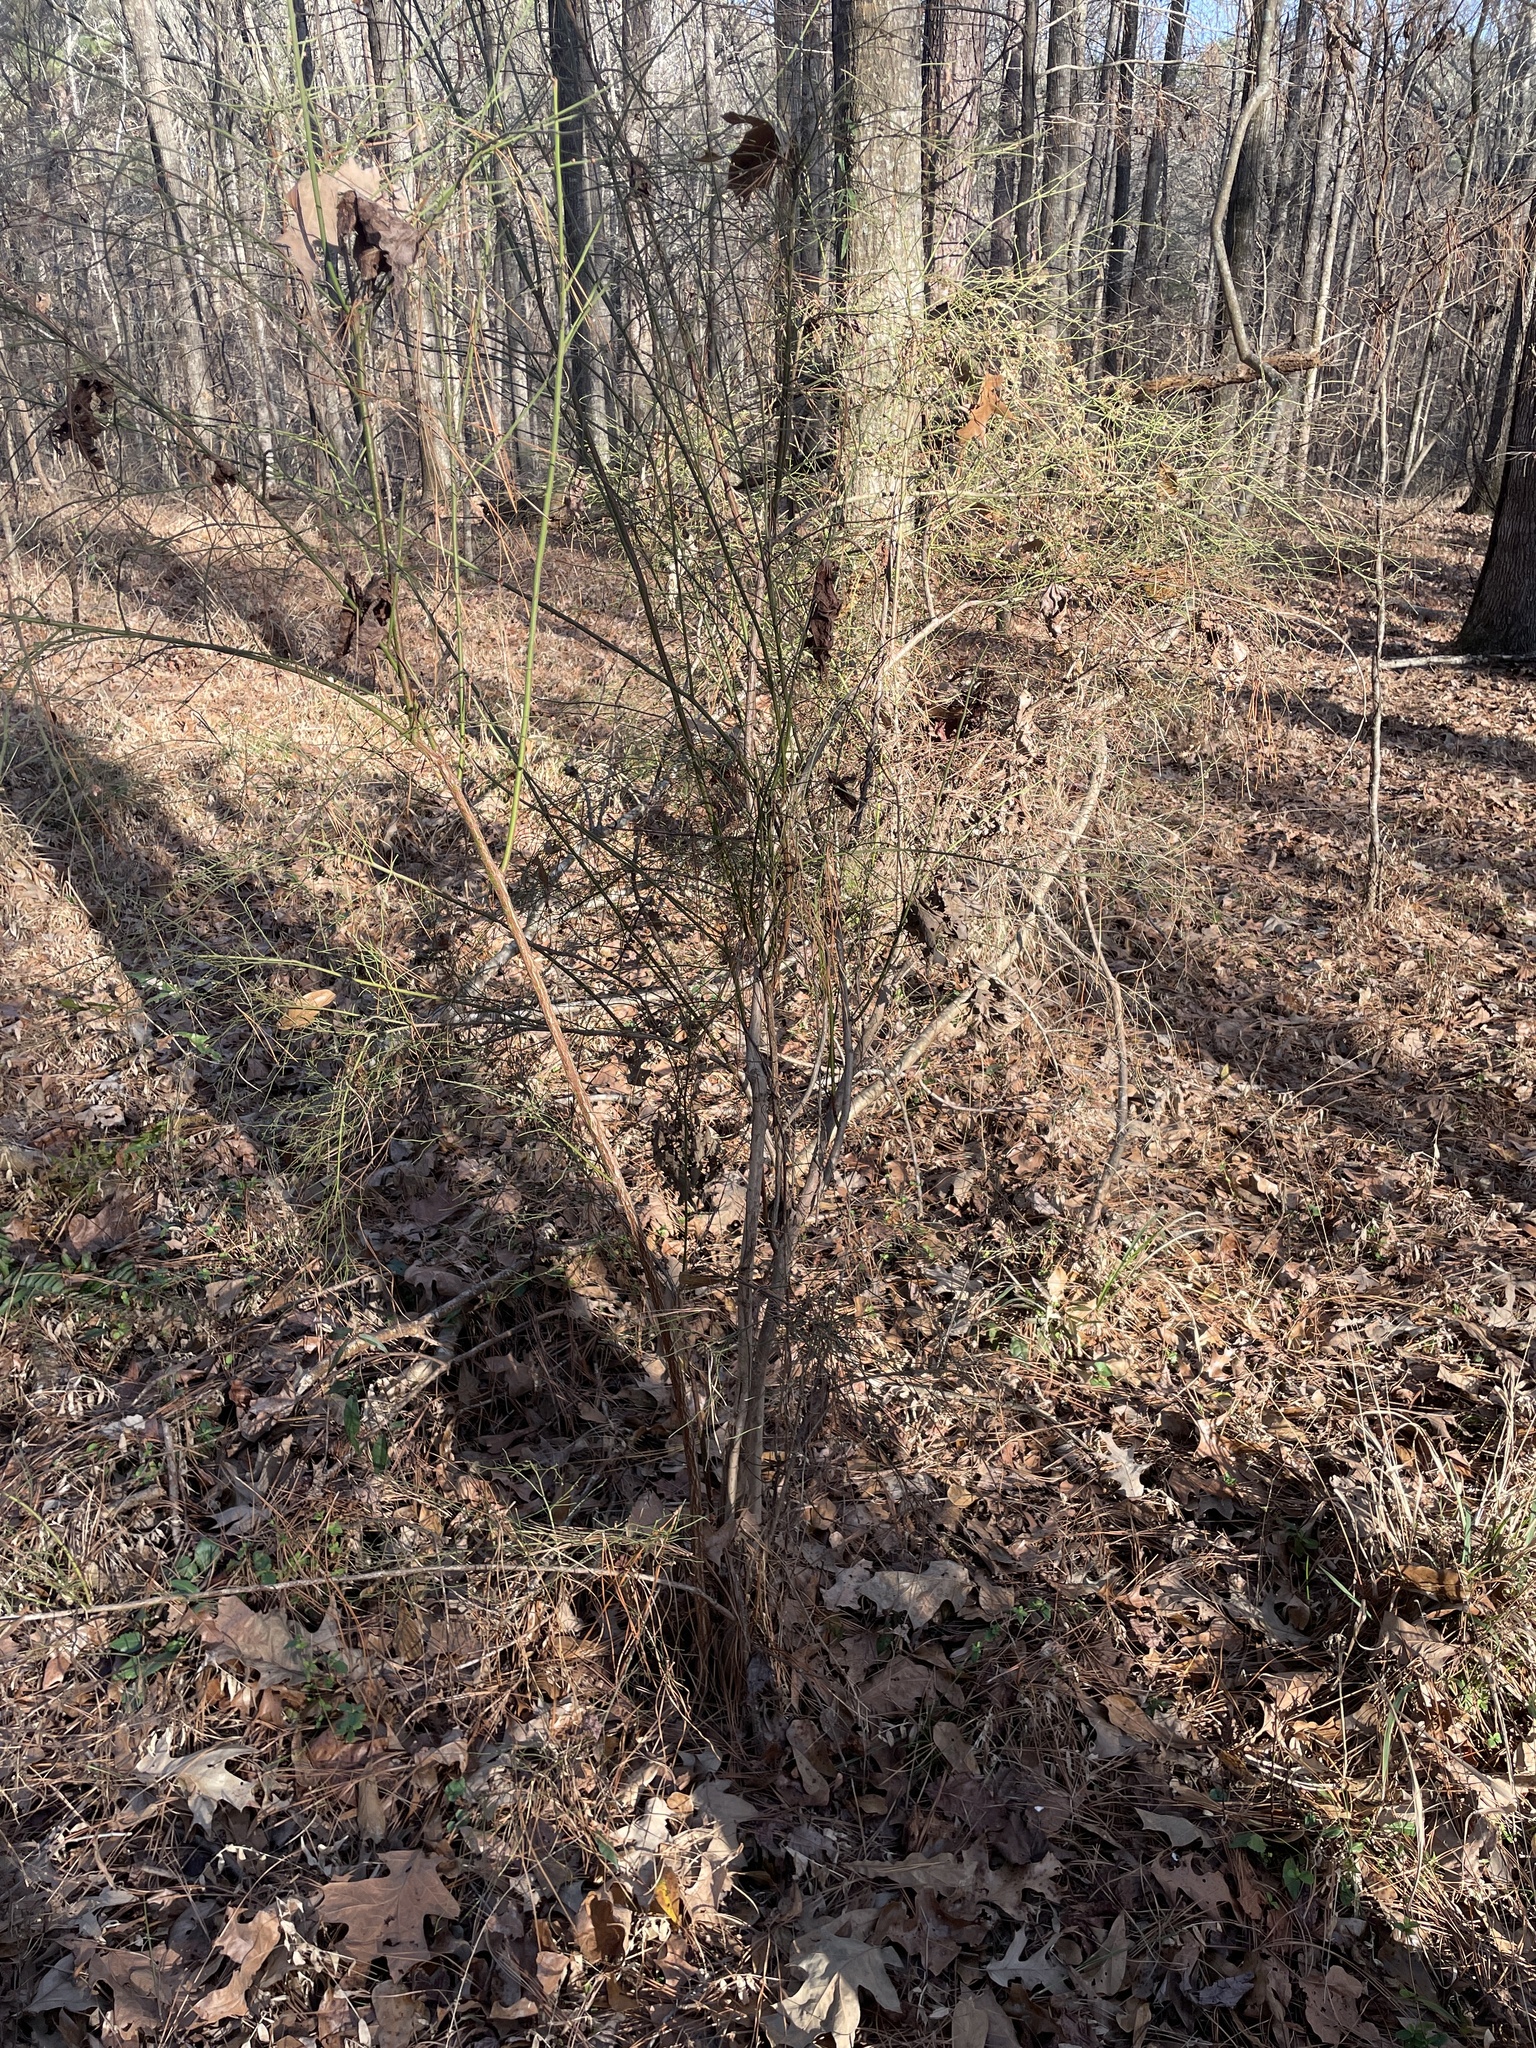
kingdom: Plantae
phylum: Tracheophyta
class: Magnoliopsida
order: Ericales
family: Ericaceae
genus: Vaccinium
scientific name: Vaccinium corymbosum
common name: Blueberry
